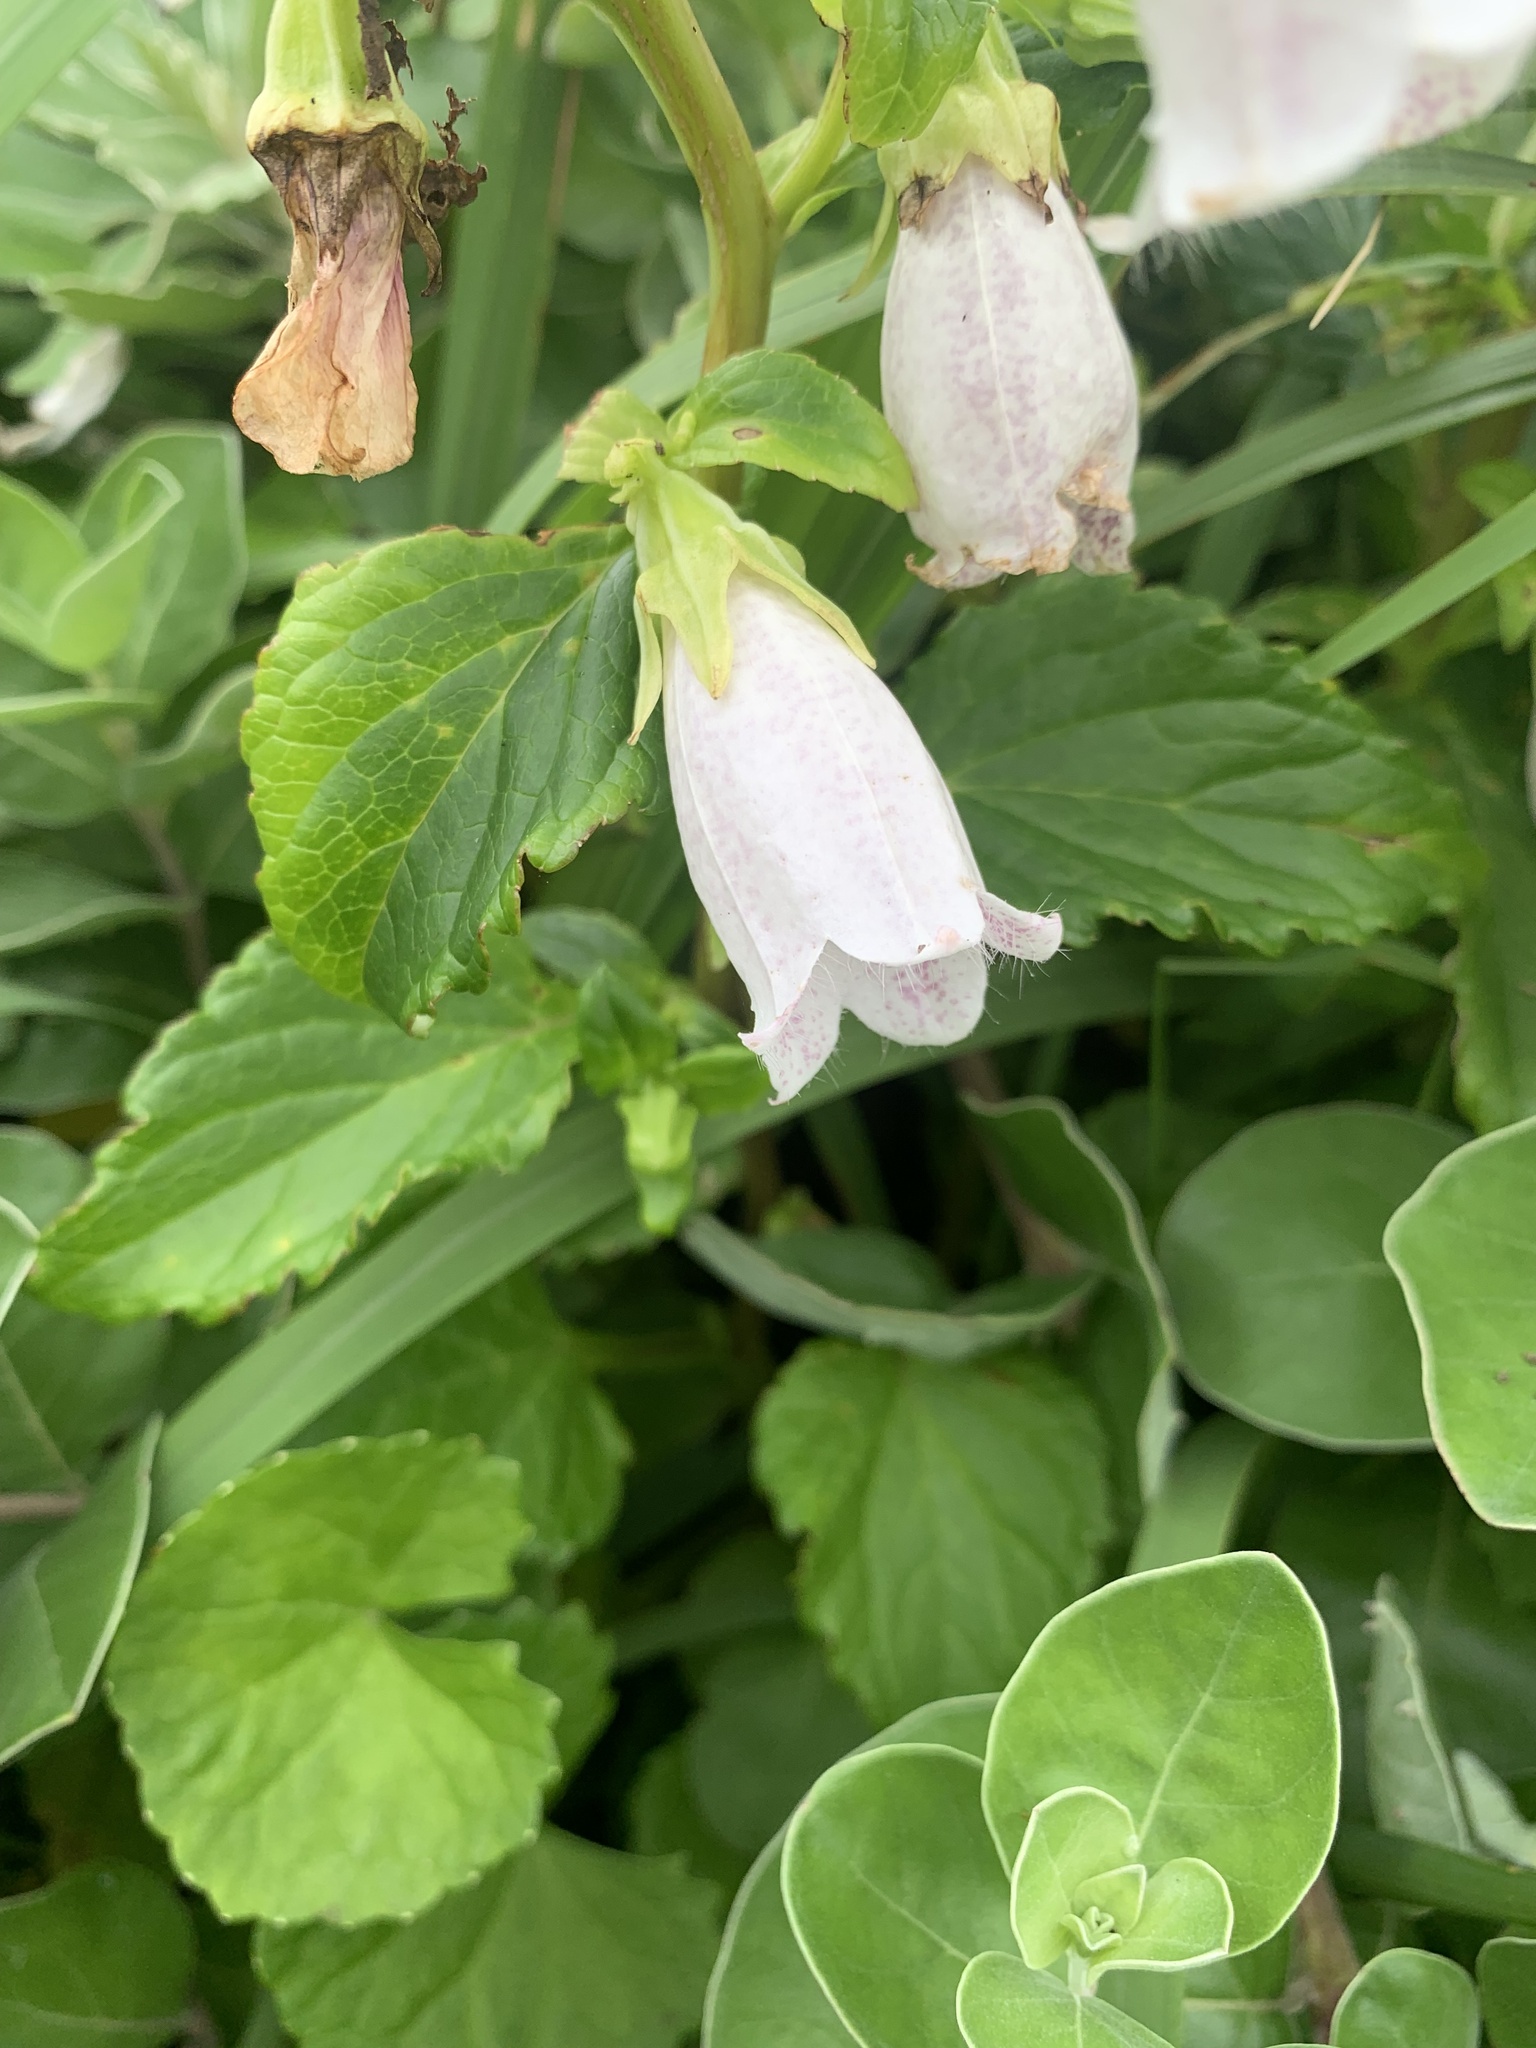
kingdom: Plantae
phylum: Tracheophyta
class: Magnoliopsida
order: Asterales
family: Campanulaceae
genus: Campanula
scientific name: Campanula microdonta
